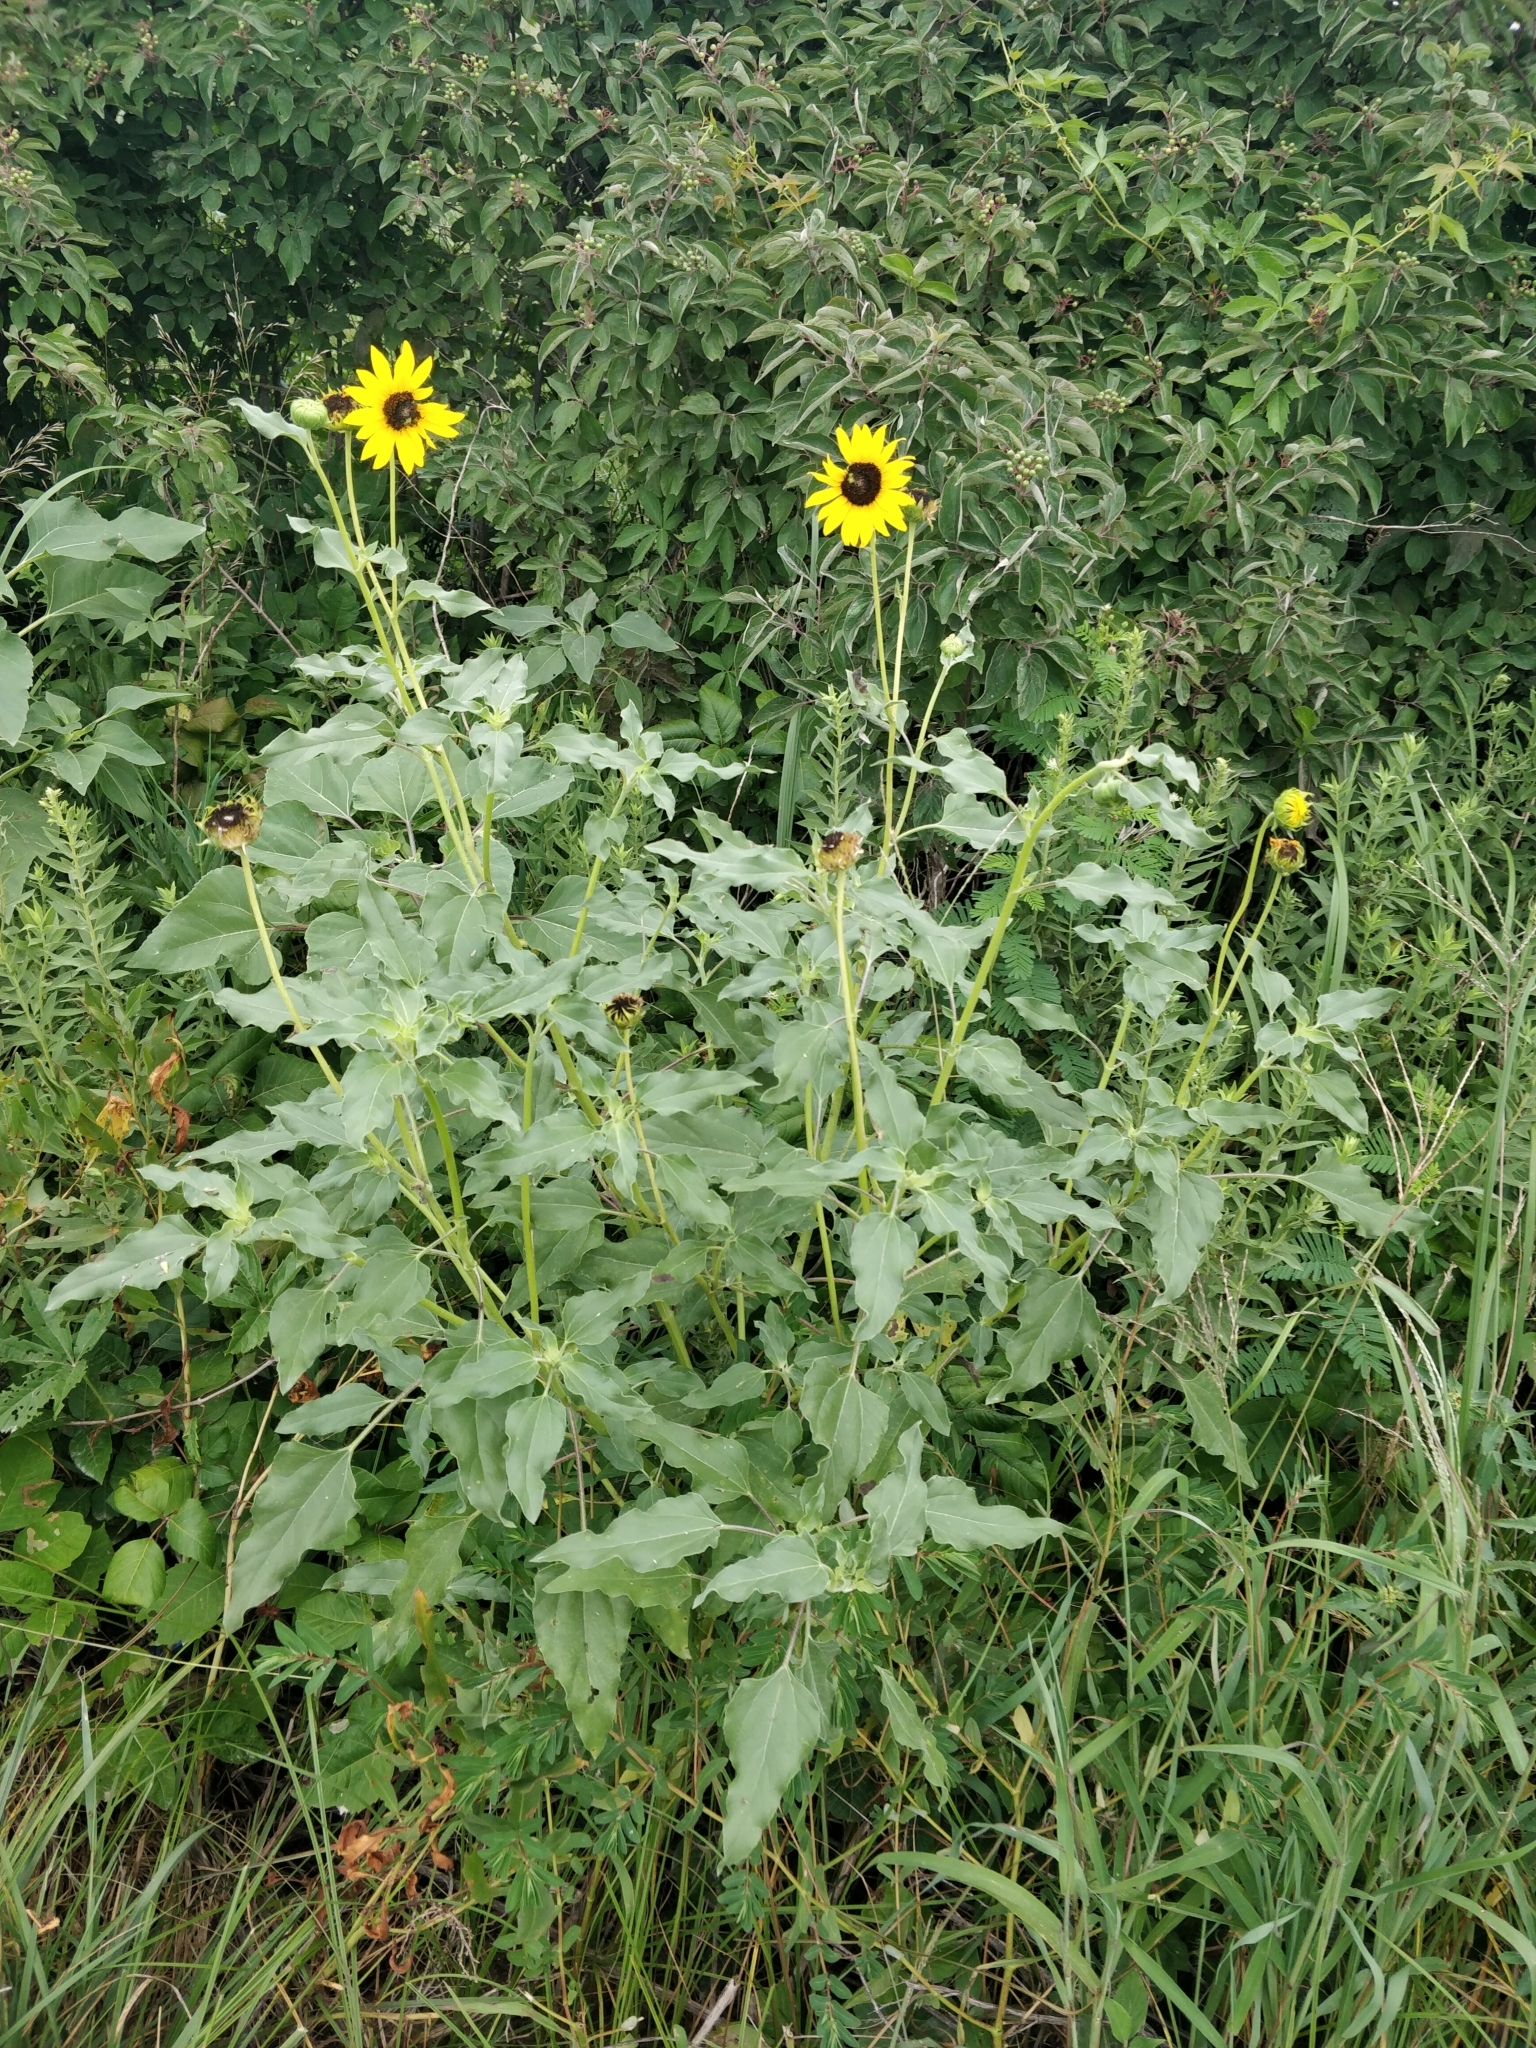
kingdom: Plantae
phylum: Tracheophyta
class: Magnoliopsida
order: Asterales
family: Asteraceae
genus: Helianthus
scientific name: Helianthus petiolaris
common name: Lesser sunflower
